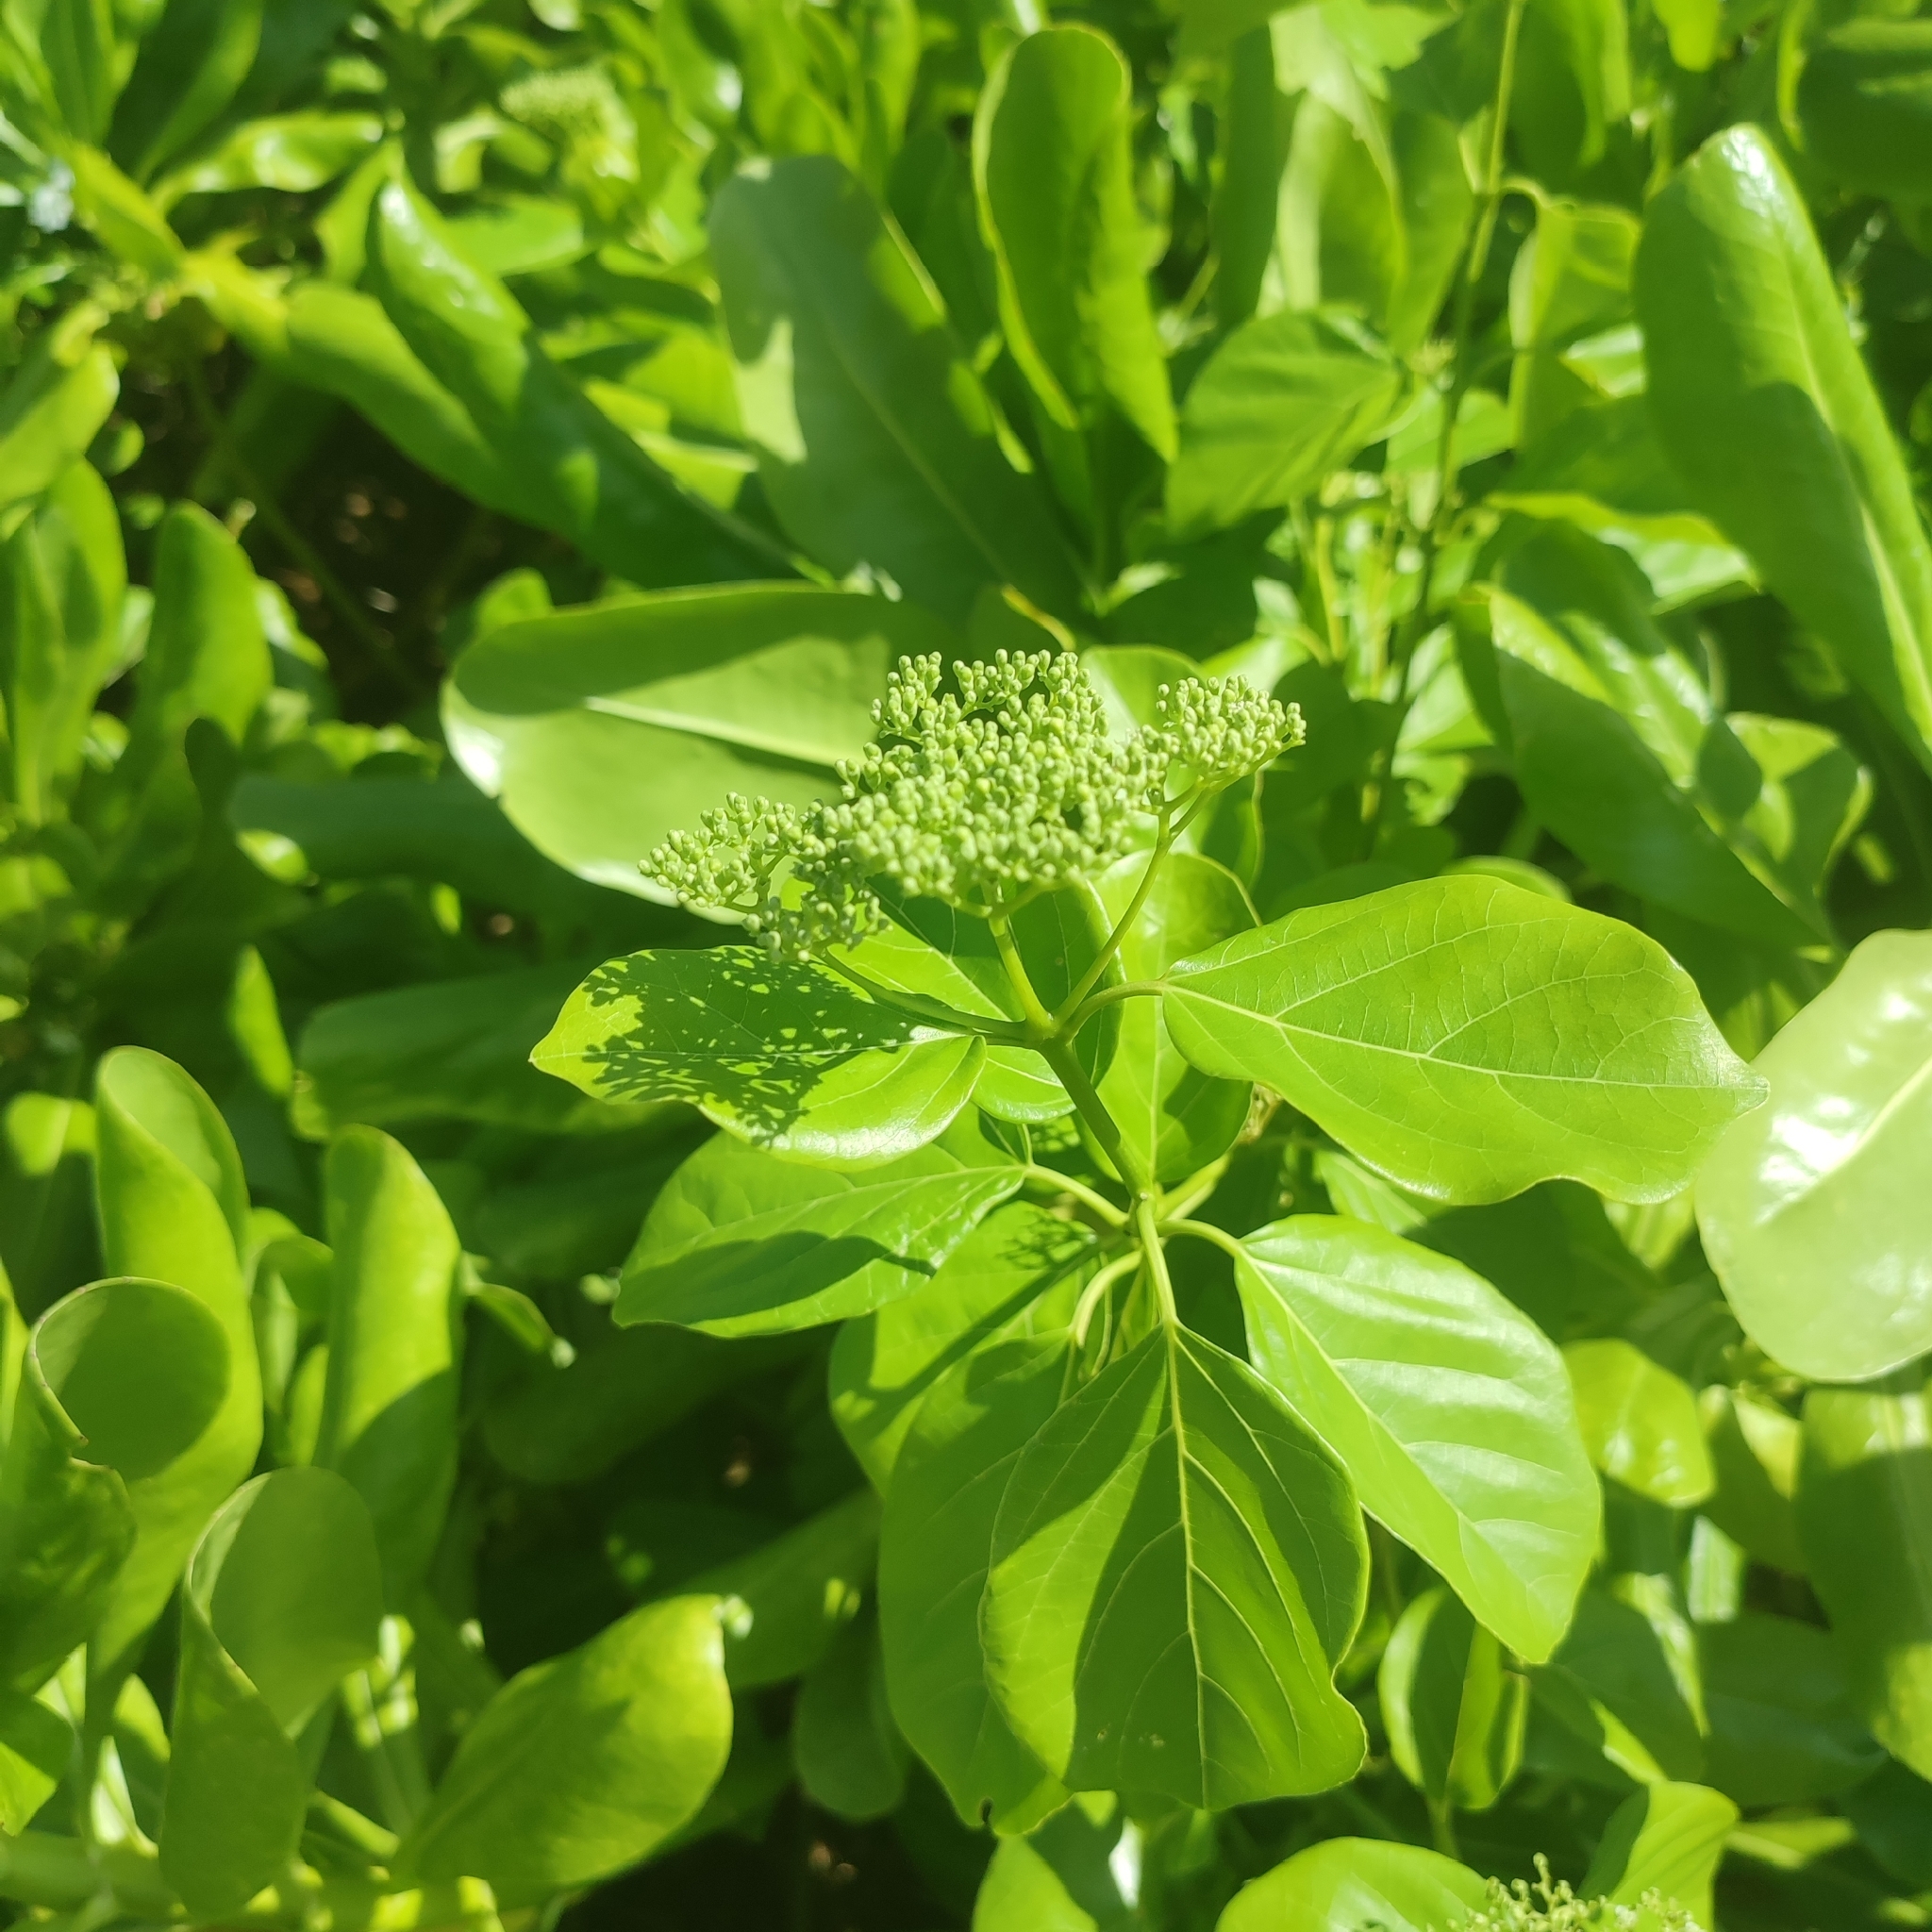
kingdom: Plantae
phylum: Tracheophyta
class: Magnoliopsida
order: Lamiales
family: Lamiaceae
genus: Premna
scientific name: Premna serratifolia
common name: Bastard guelder
